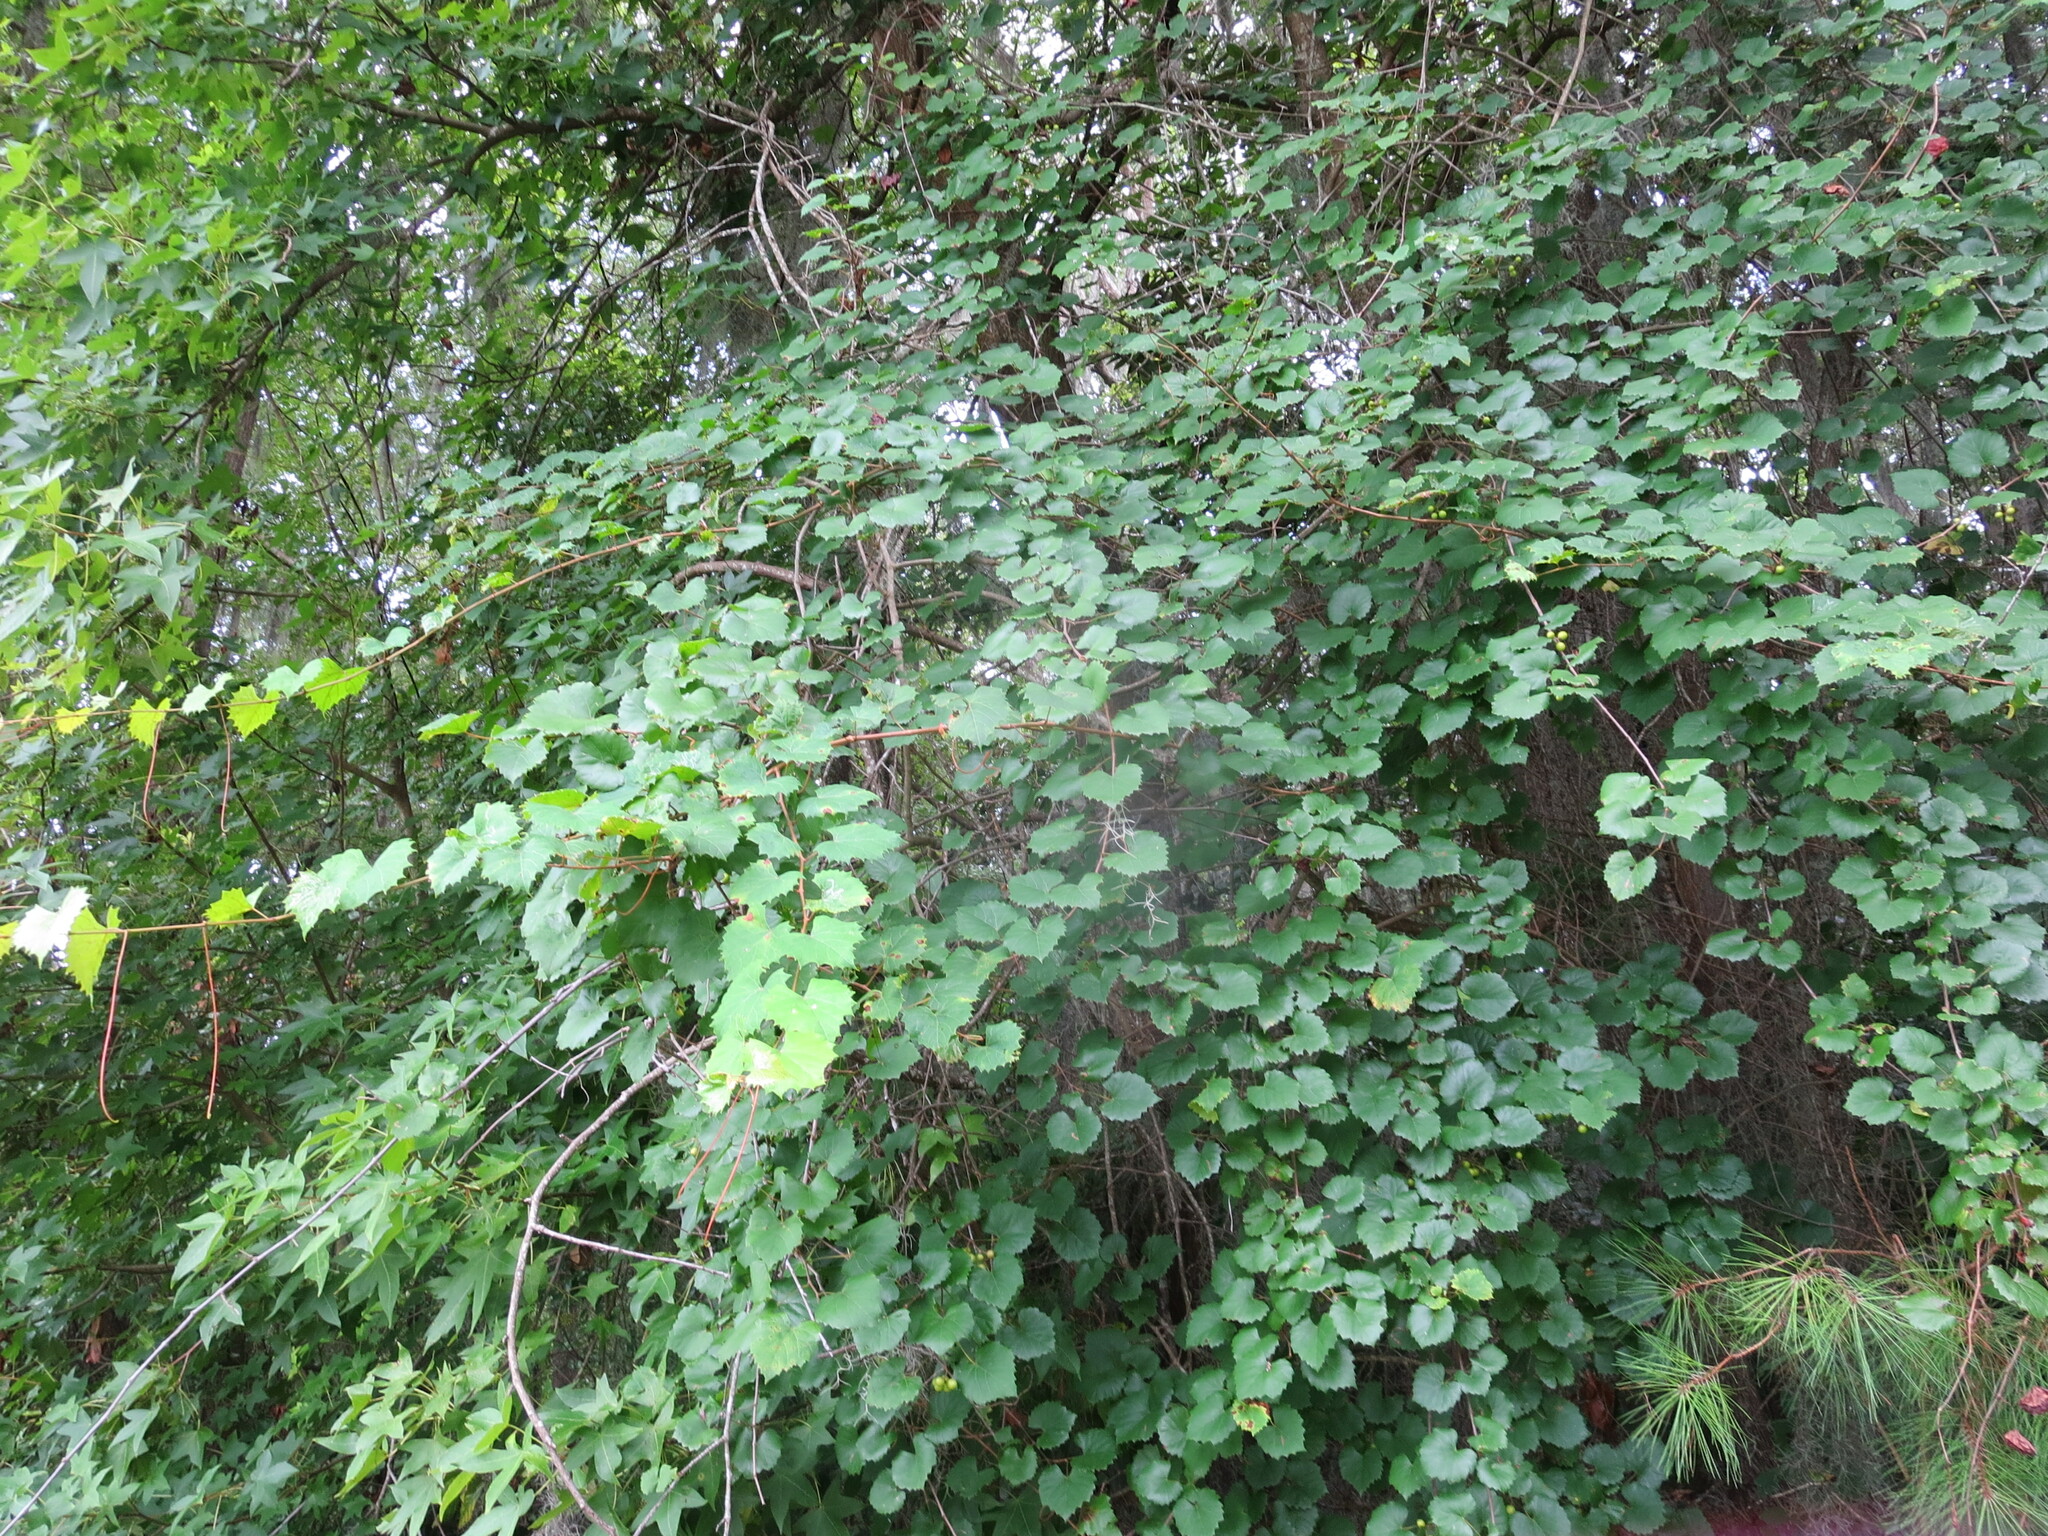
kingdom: Plantae
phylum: Tracheophyta
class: Magnoliopsida
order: Vitales
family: Vitaceae
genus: Vitis
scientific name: Vitis rotundifolia
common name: Muscadine grape
